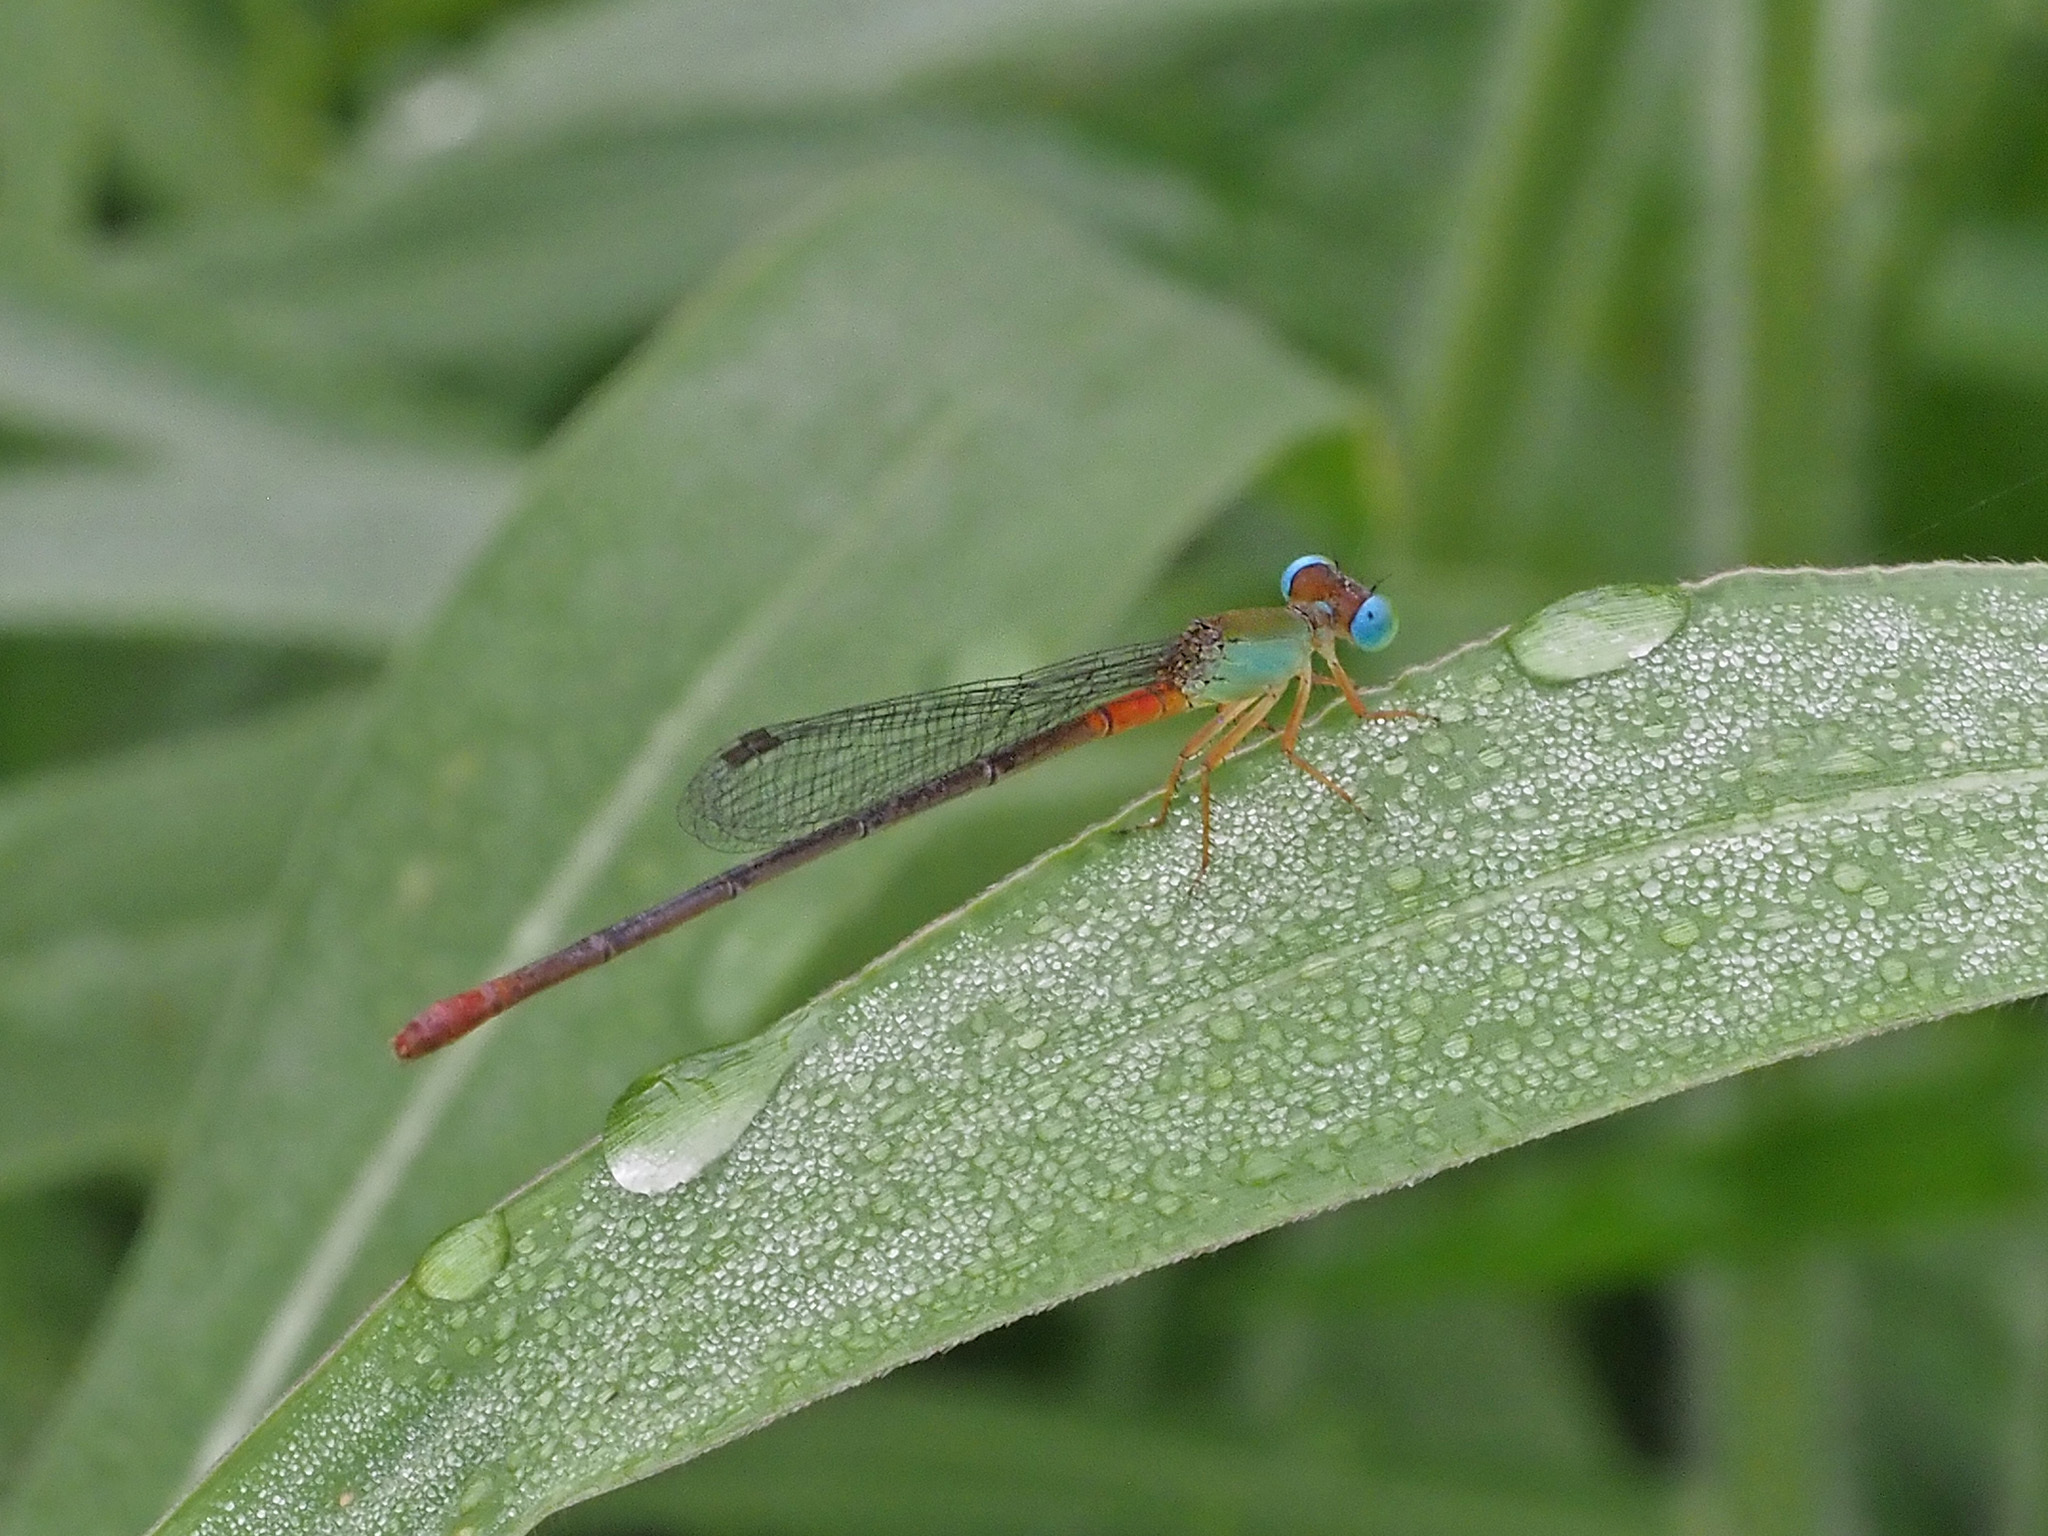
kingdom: Animalia
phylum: Arthropoda
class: Insecta
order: Odonata
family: Coenagrionidae
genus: Ceriagrion
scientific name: Ceriagrion cerinorubellum
